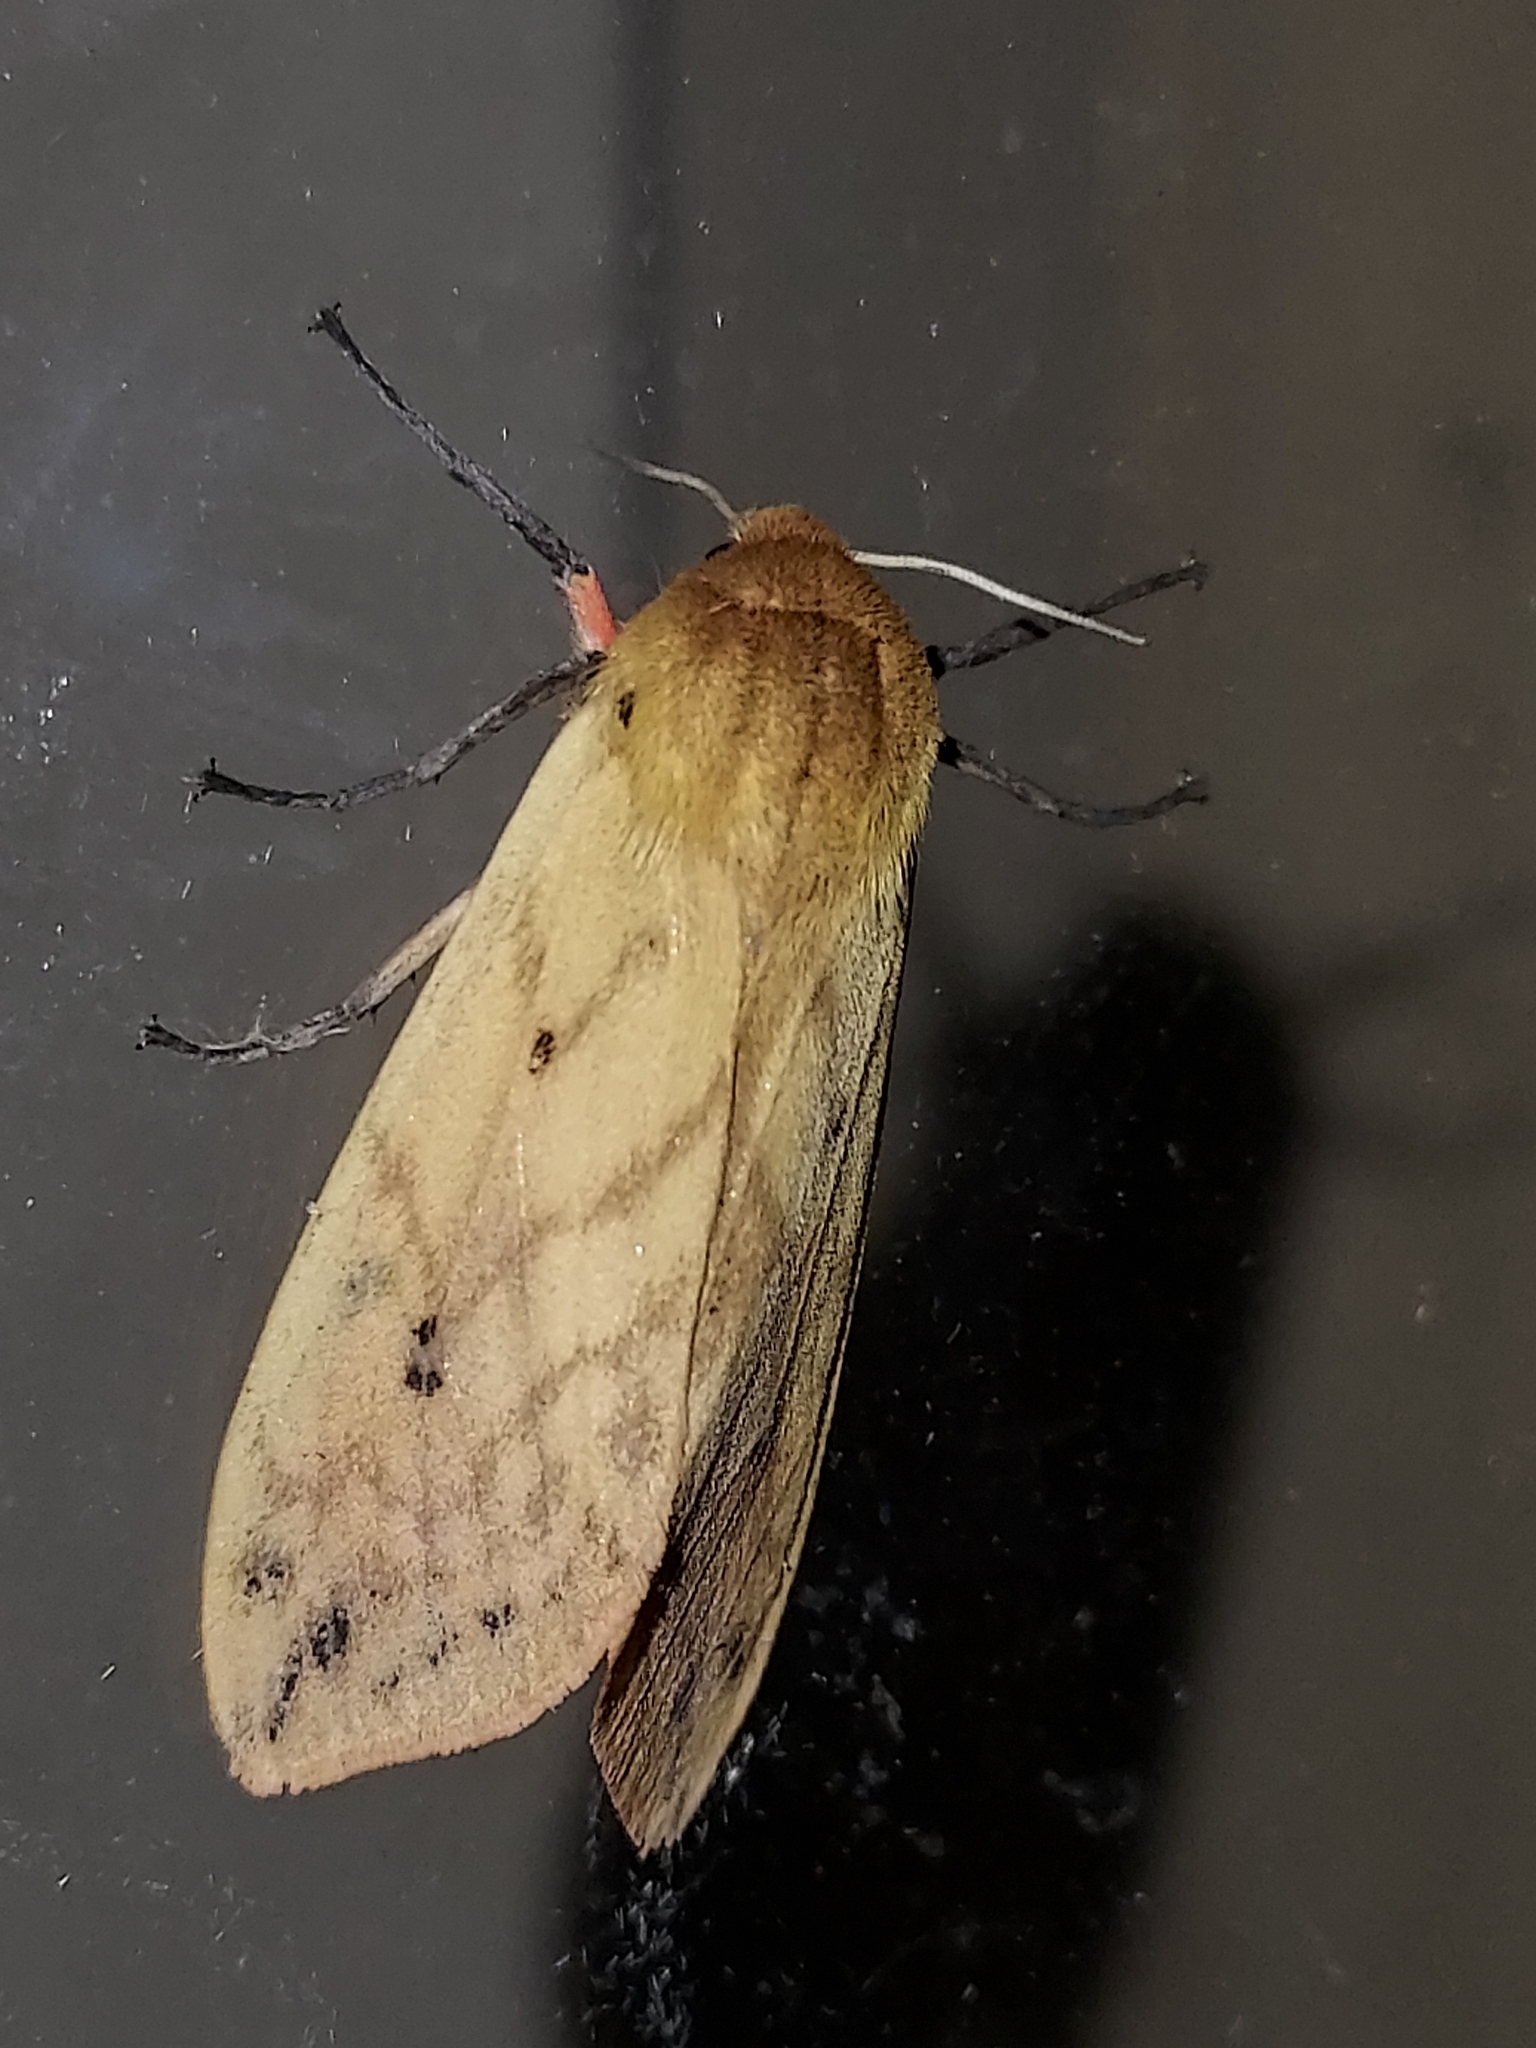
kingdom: Animalia
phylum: Arthropoda
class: Insecta
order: Lepidoptera
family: Erebidae
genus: Pyrrharctia
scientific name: Pyrrharctia isabella
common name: Isabella tiger moth
